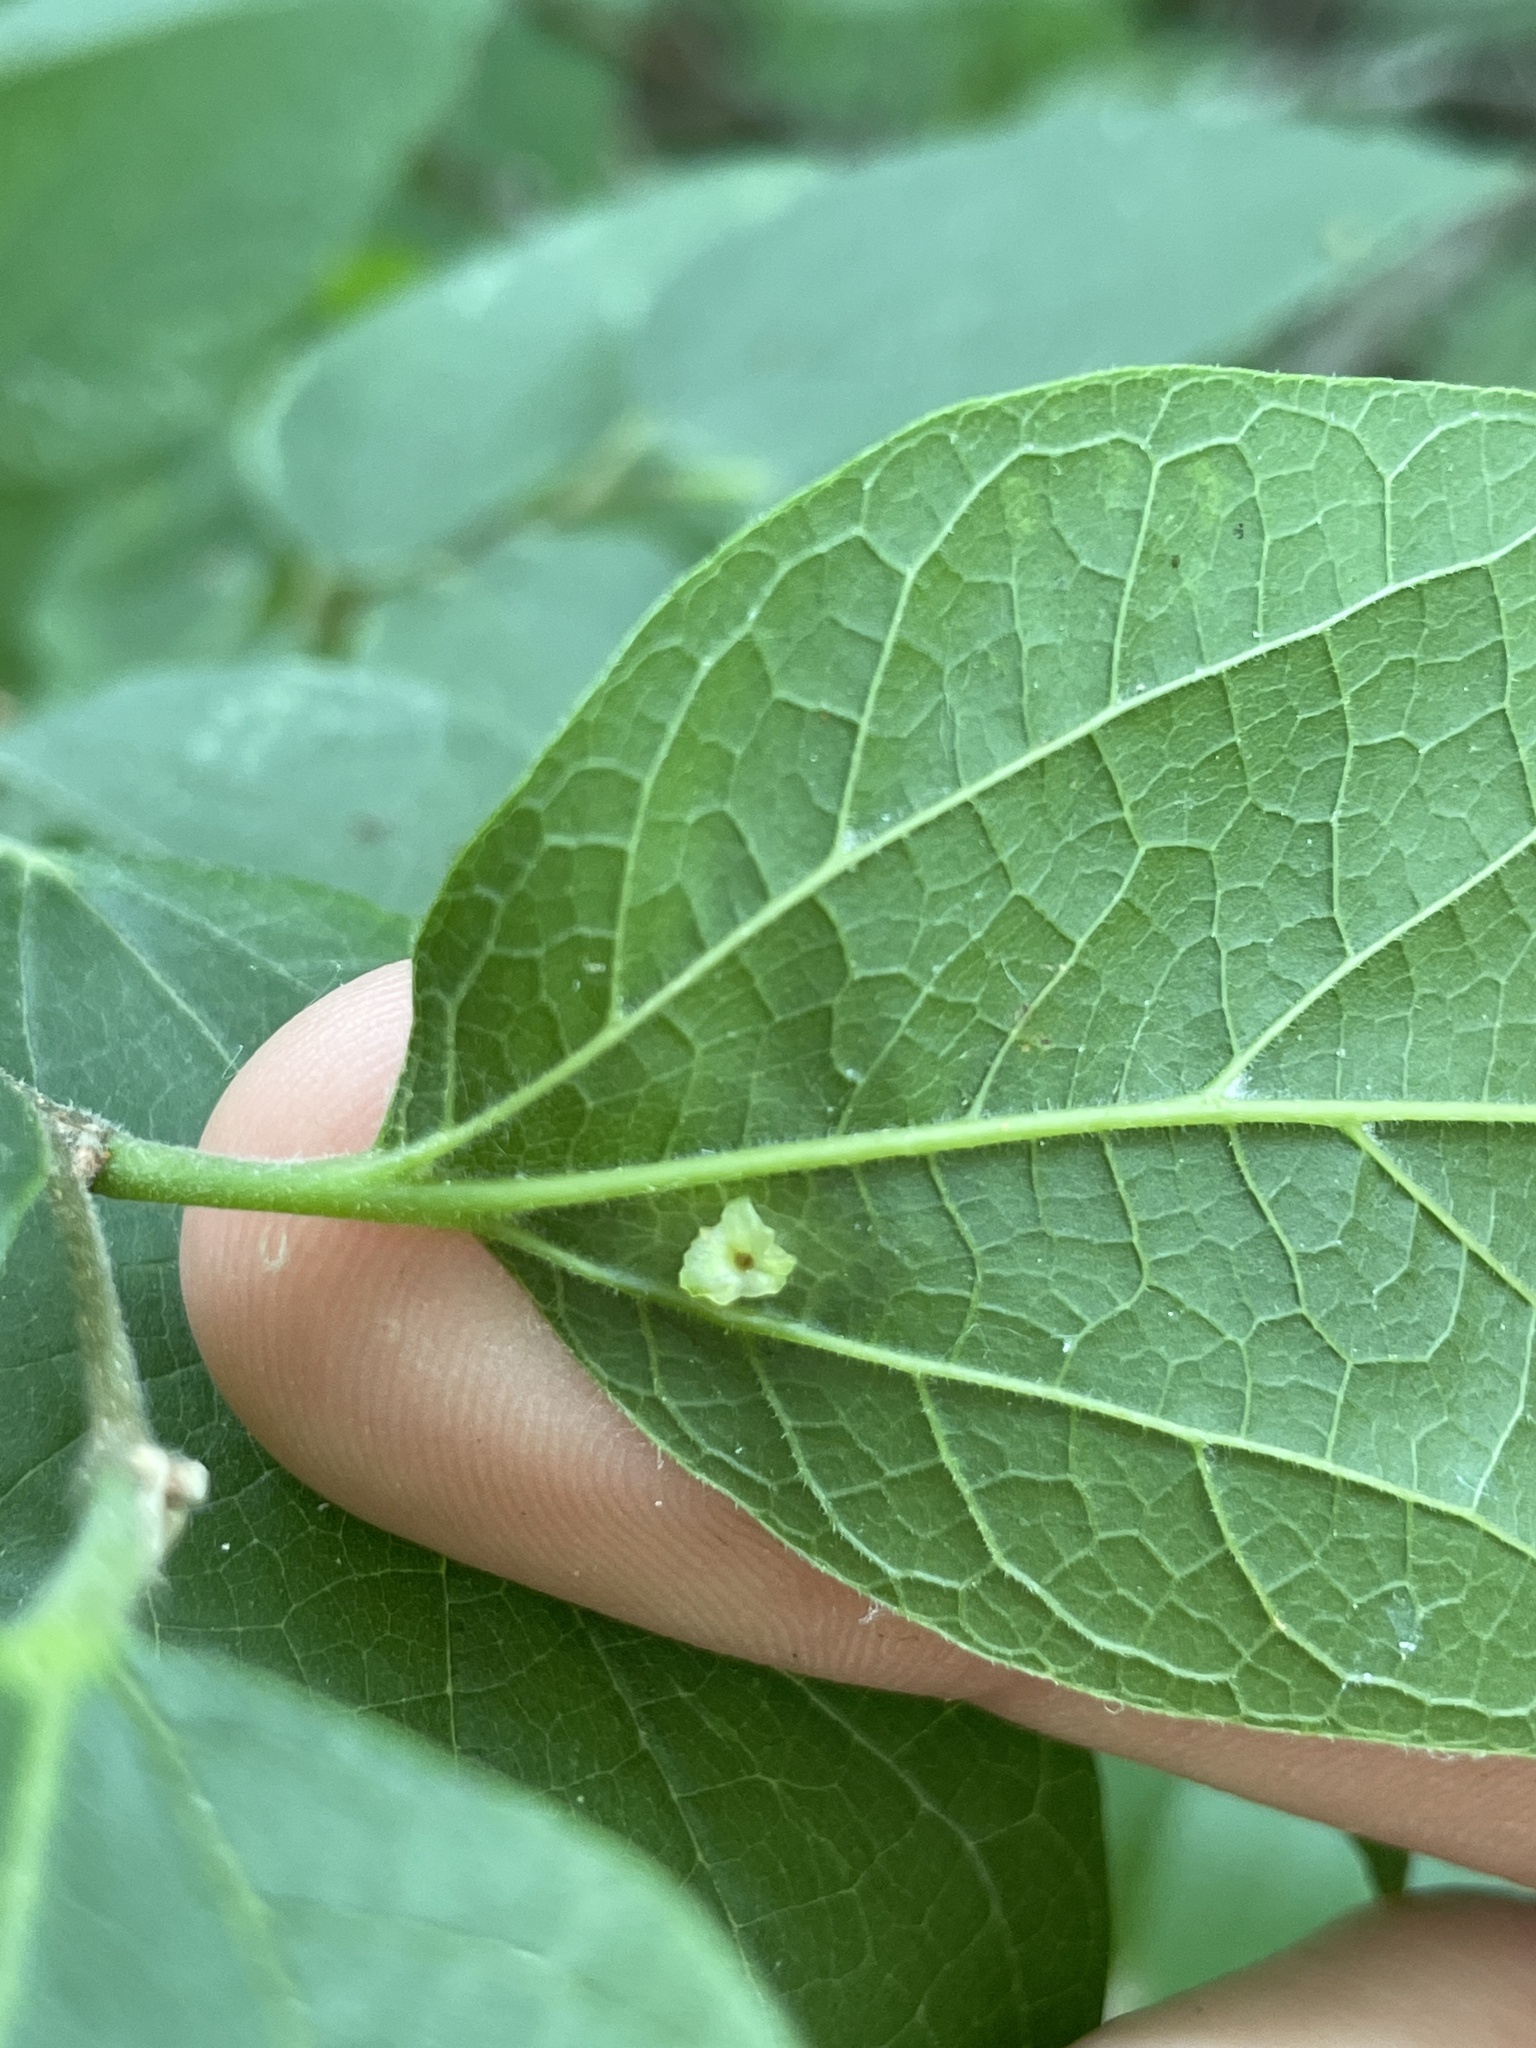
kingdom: Animalia
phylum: Arthropoda
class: Insecta
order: Hemiptera
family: Aphalaridae
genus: Pachypsylla
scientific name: Pachypsylla celtidisasterisca
